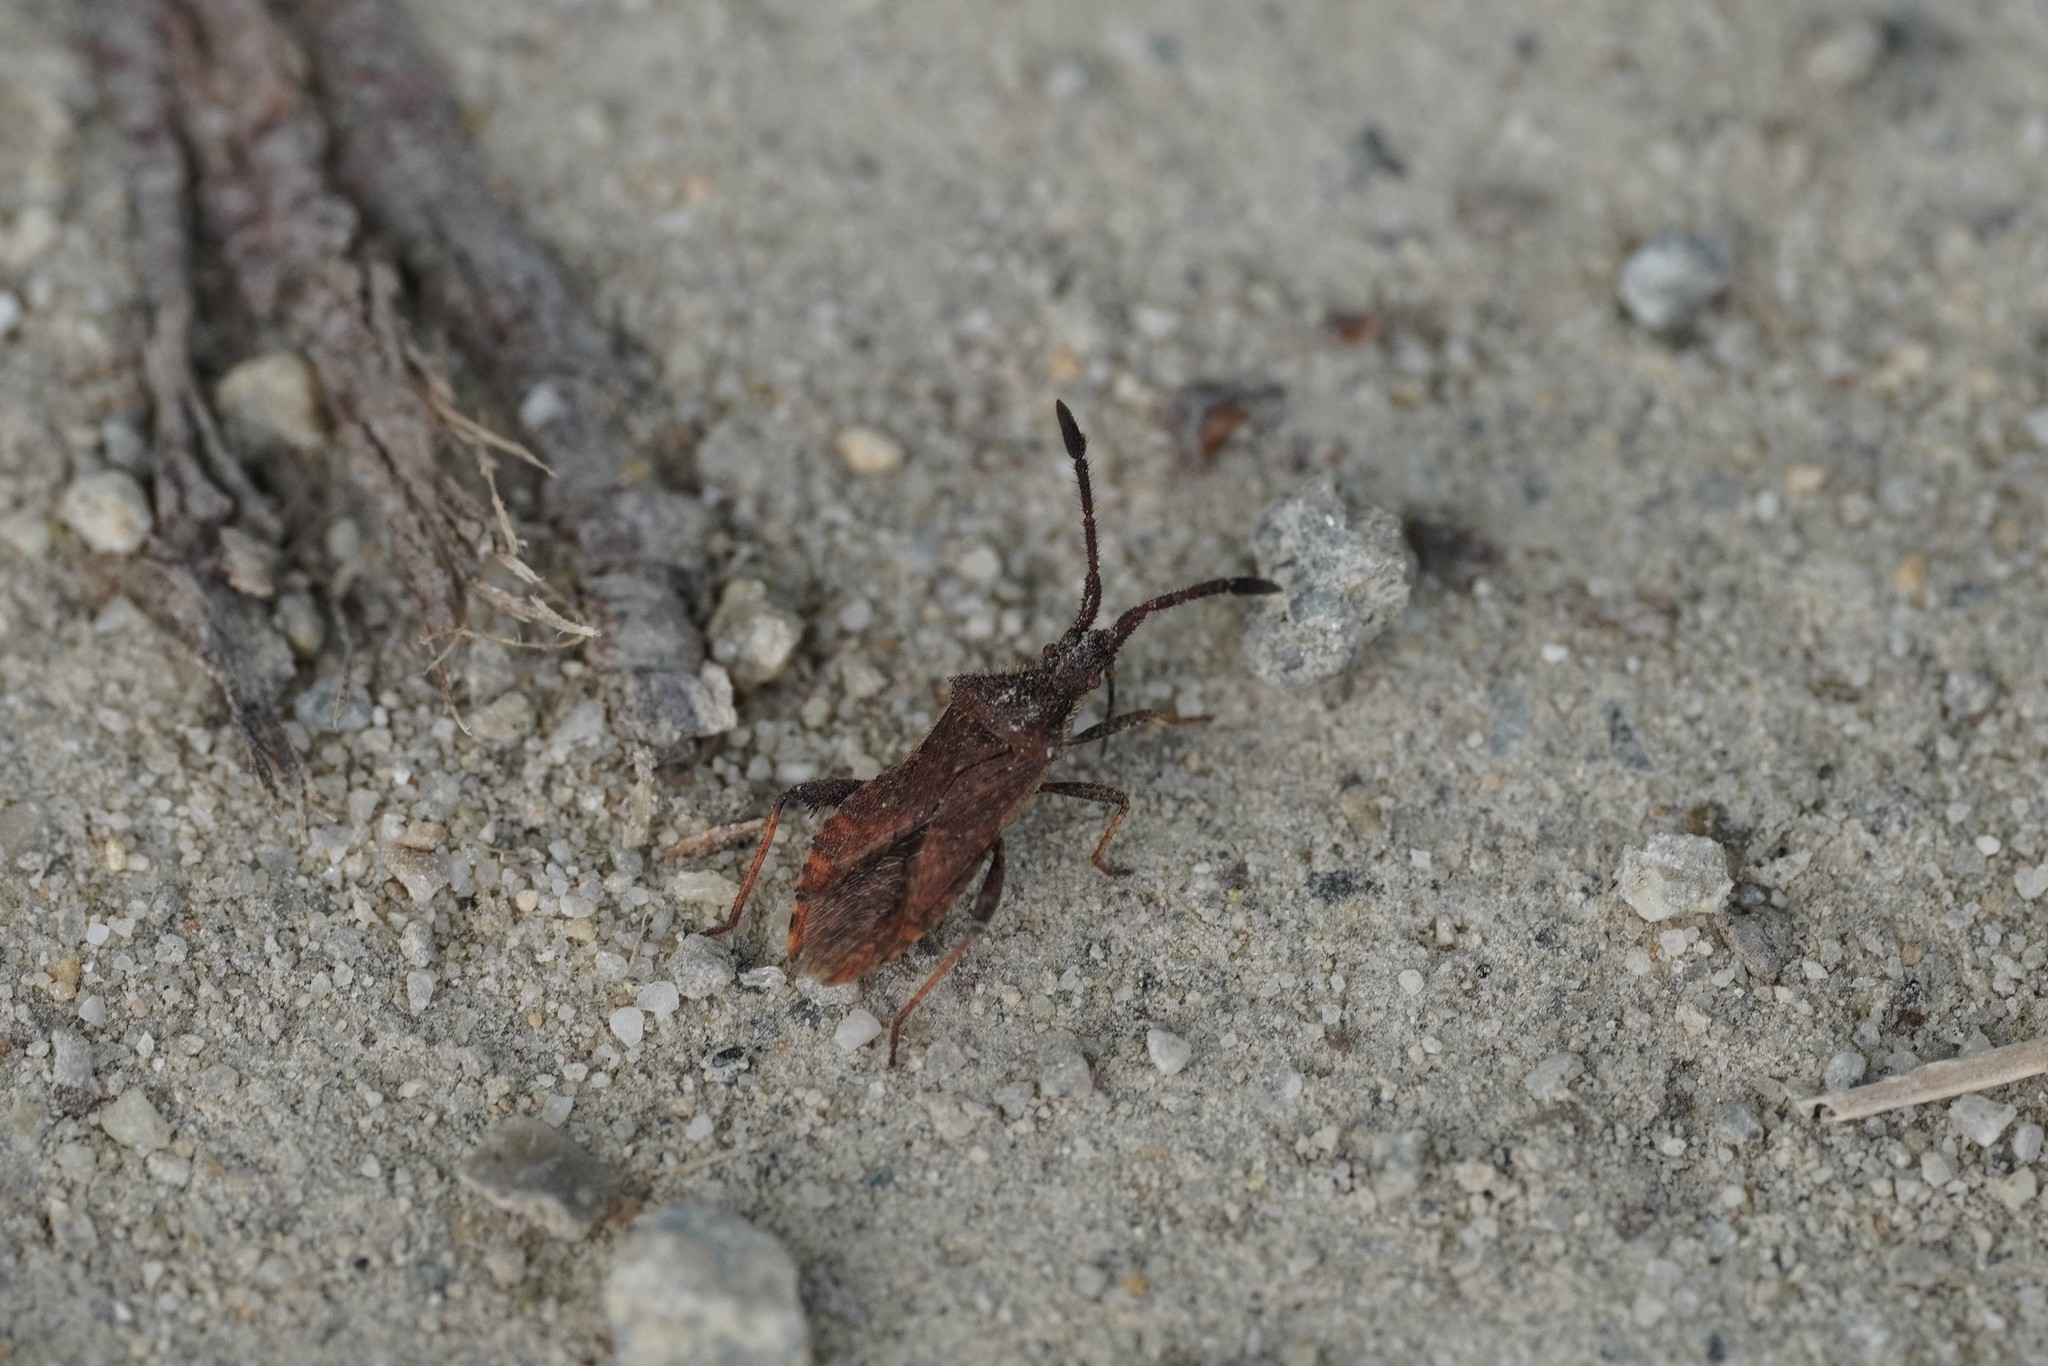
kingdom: Animalia
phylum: Arthropoda
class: Insecta
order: Hemiptera
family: Coreidae
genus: Coriomeris
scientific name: Coriomeris denticulatus
